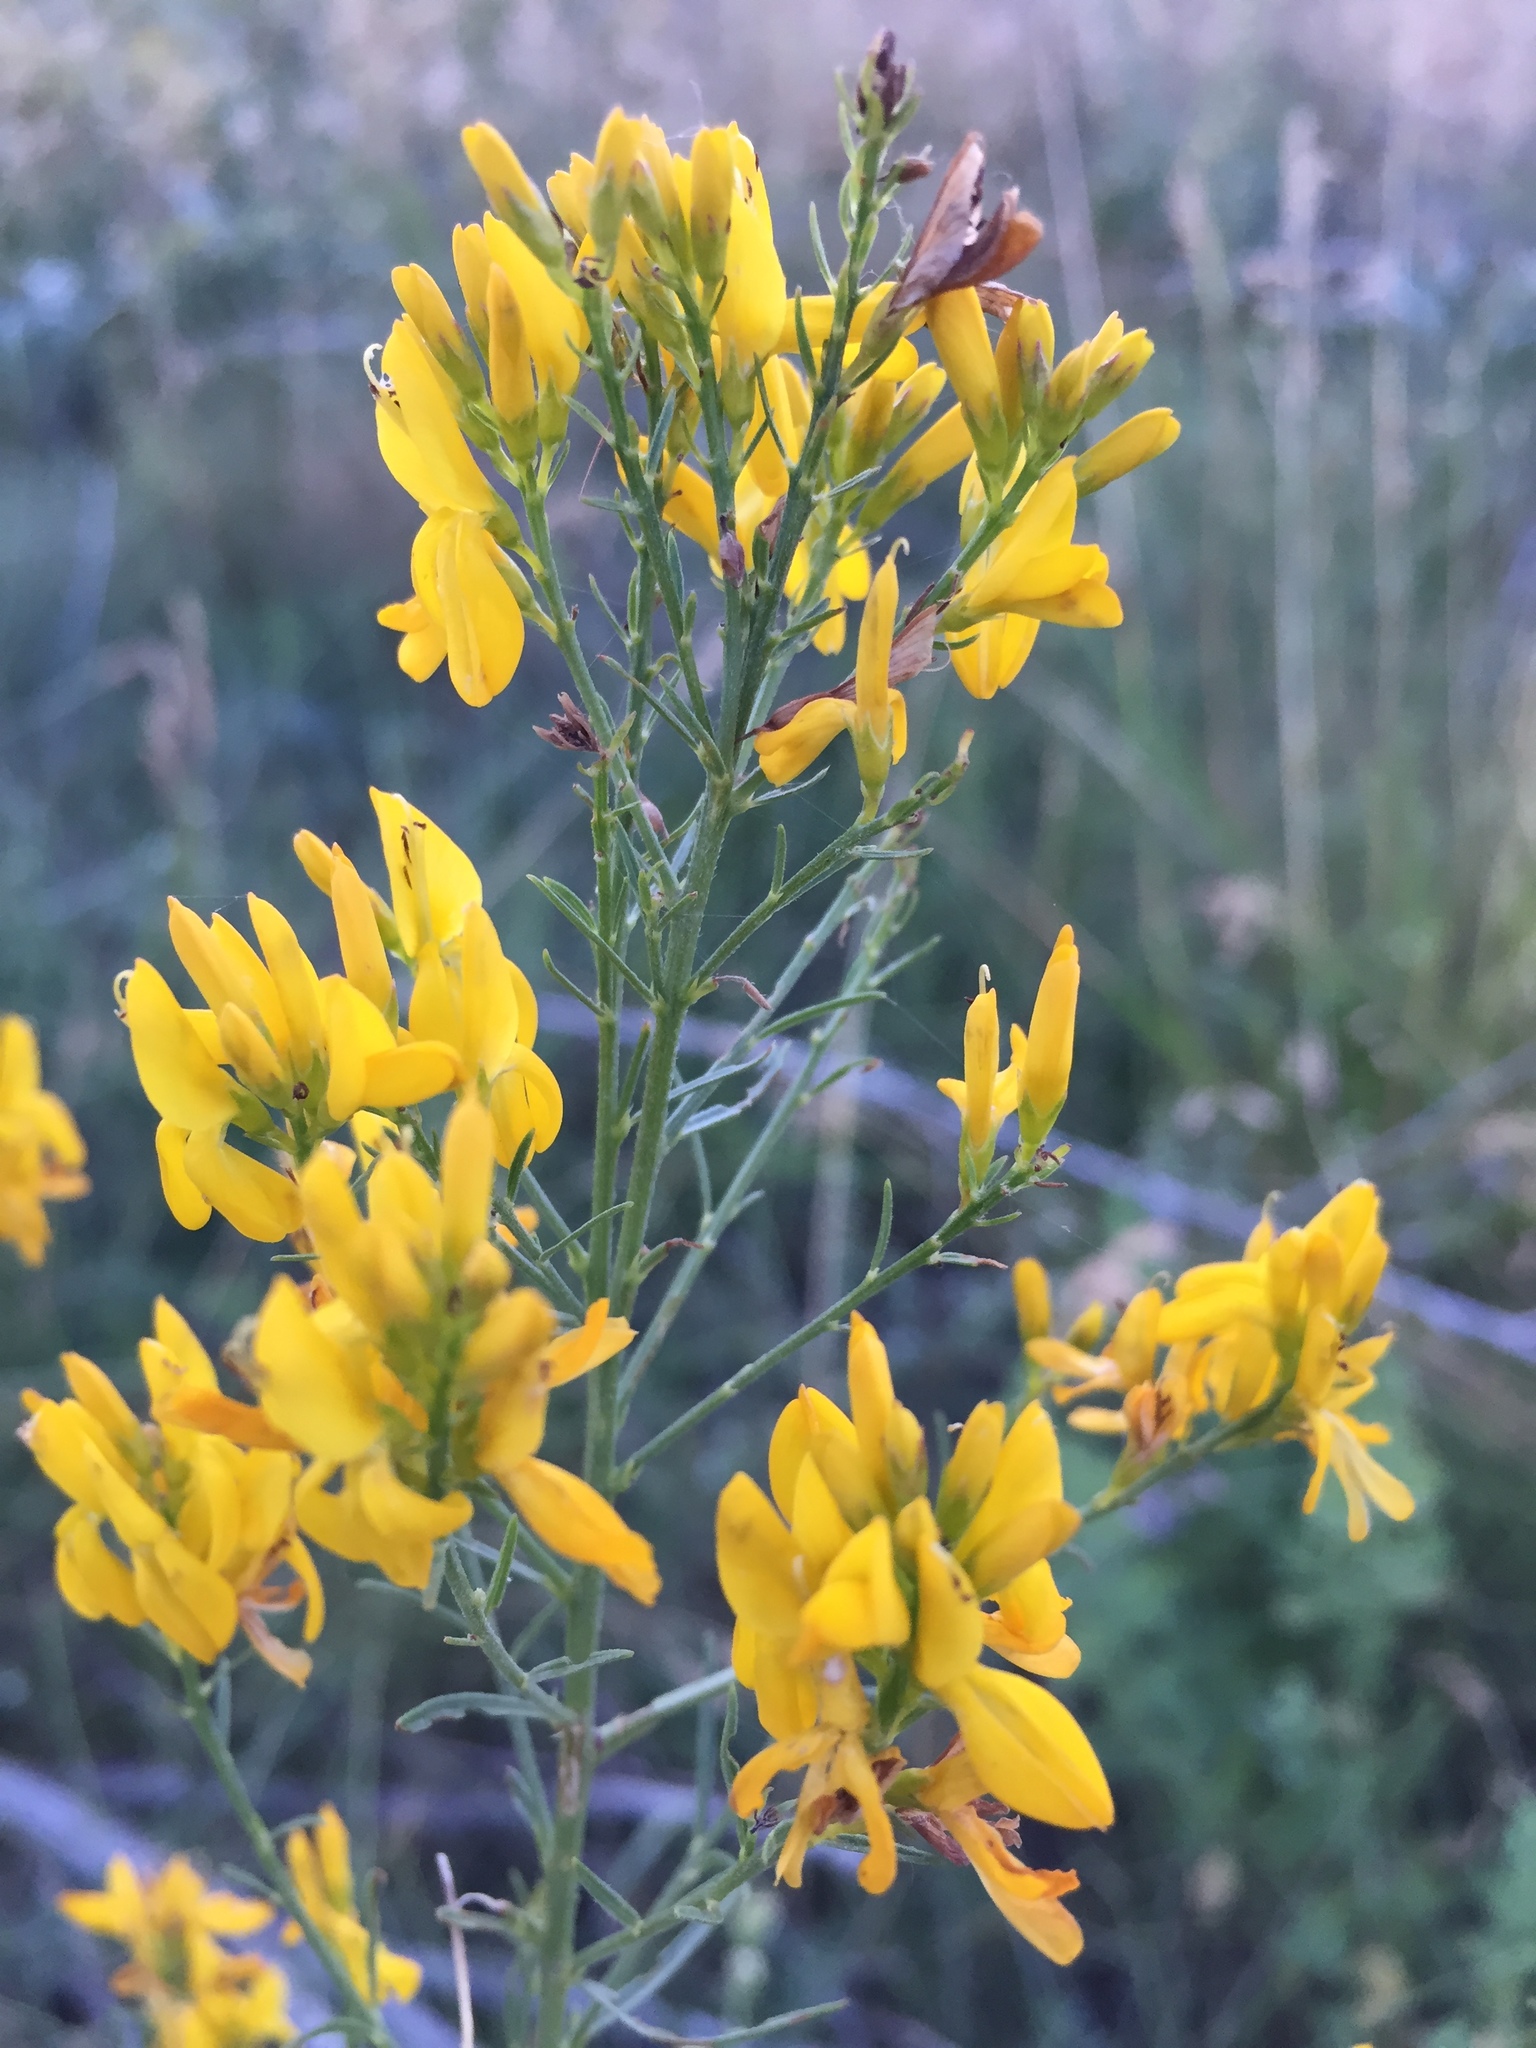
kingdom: Plantae
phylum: Tracheophyta
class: Magnoliopsida
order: Fabales
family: Fabaceae
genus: Genista
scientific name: Genista tinctoria
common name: Dyer's greenweed
